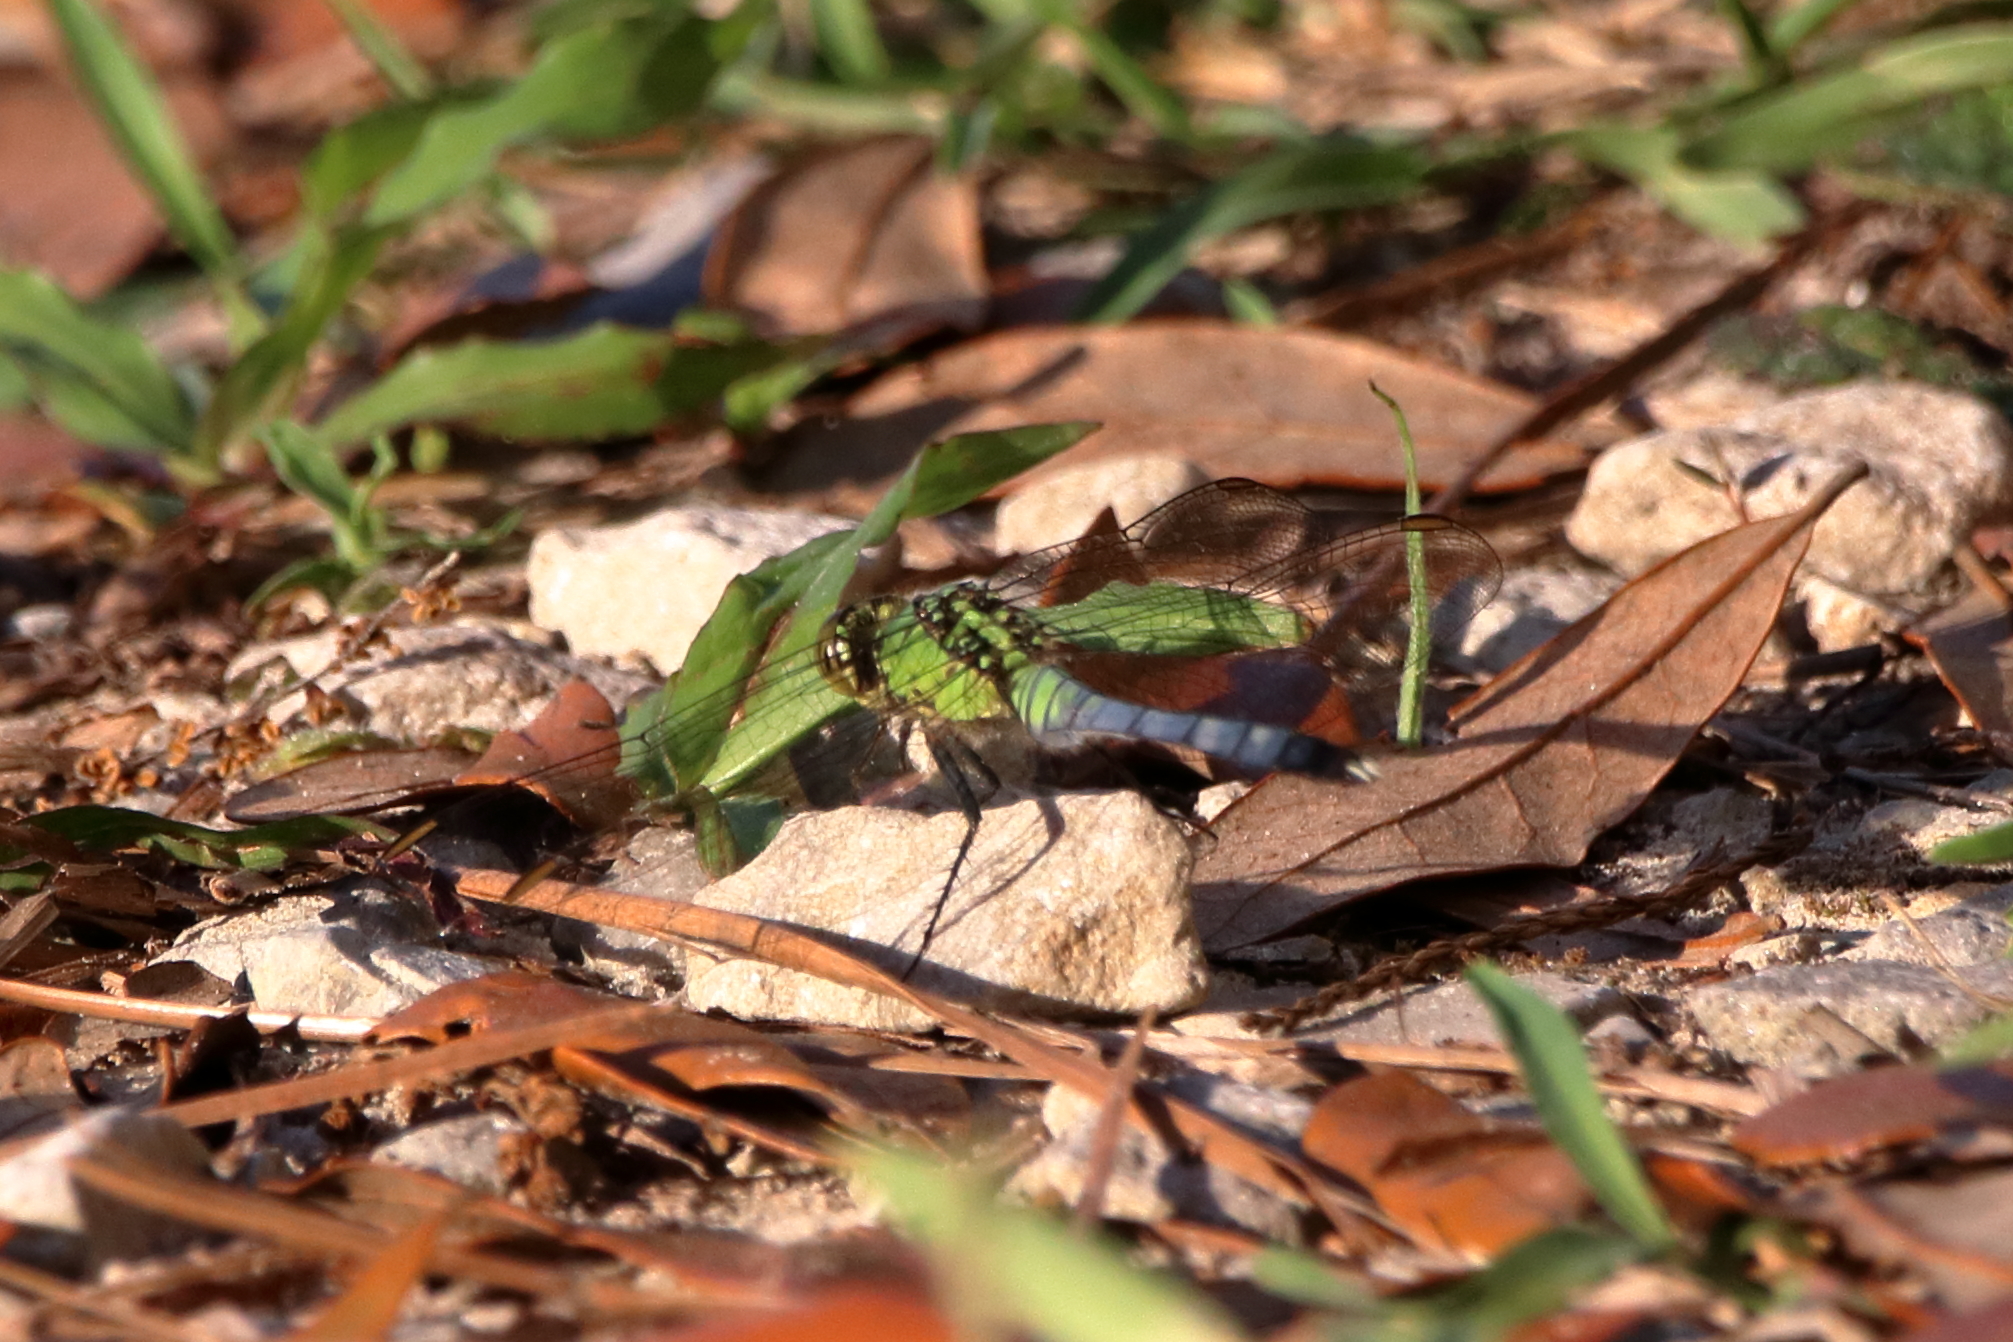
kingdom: Animalia
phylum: Arthropoda
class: Insecta
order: Odonata
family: Libellulidae
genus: Erythemis
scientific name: Erythemis simplicicollis
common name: Eastern pondhawk
